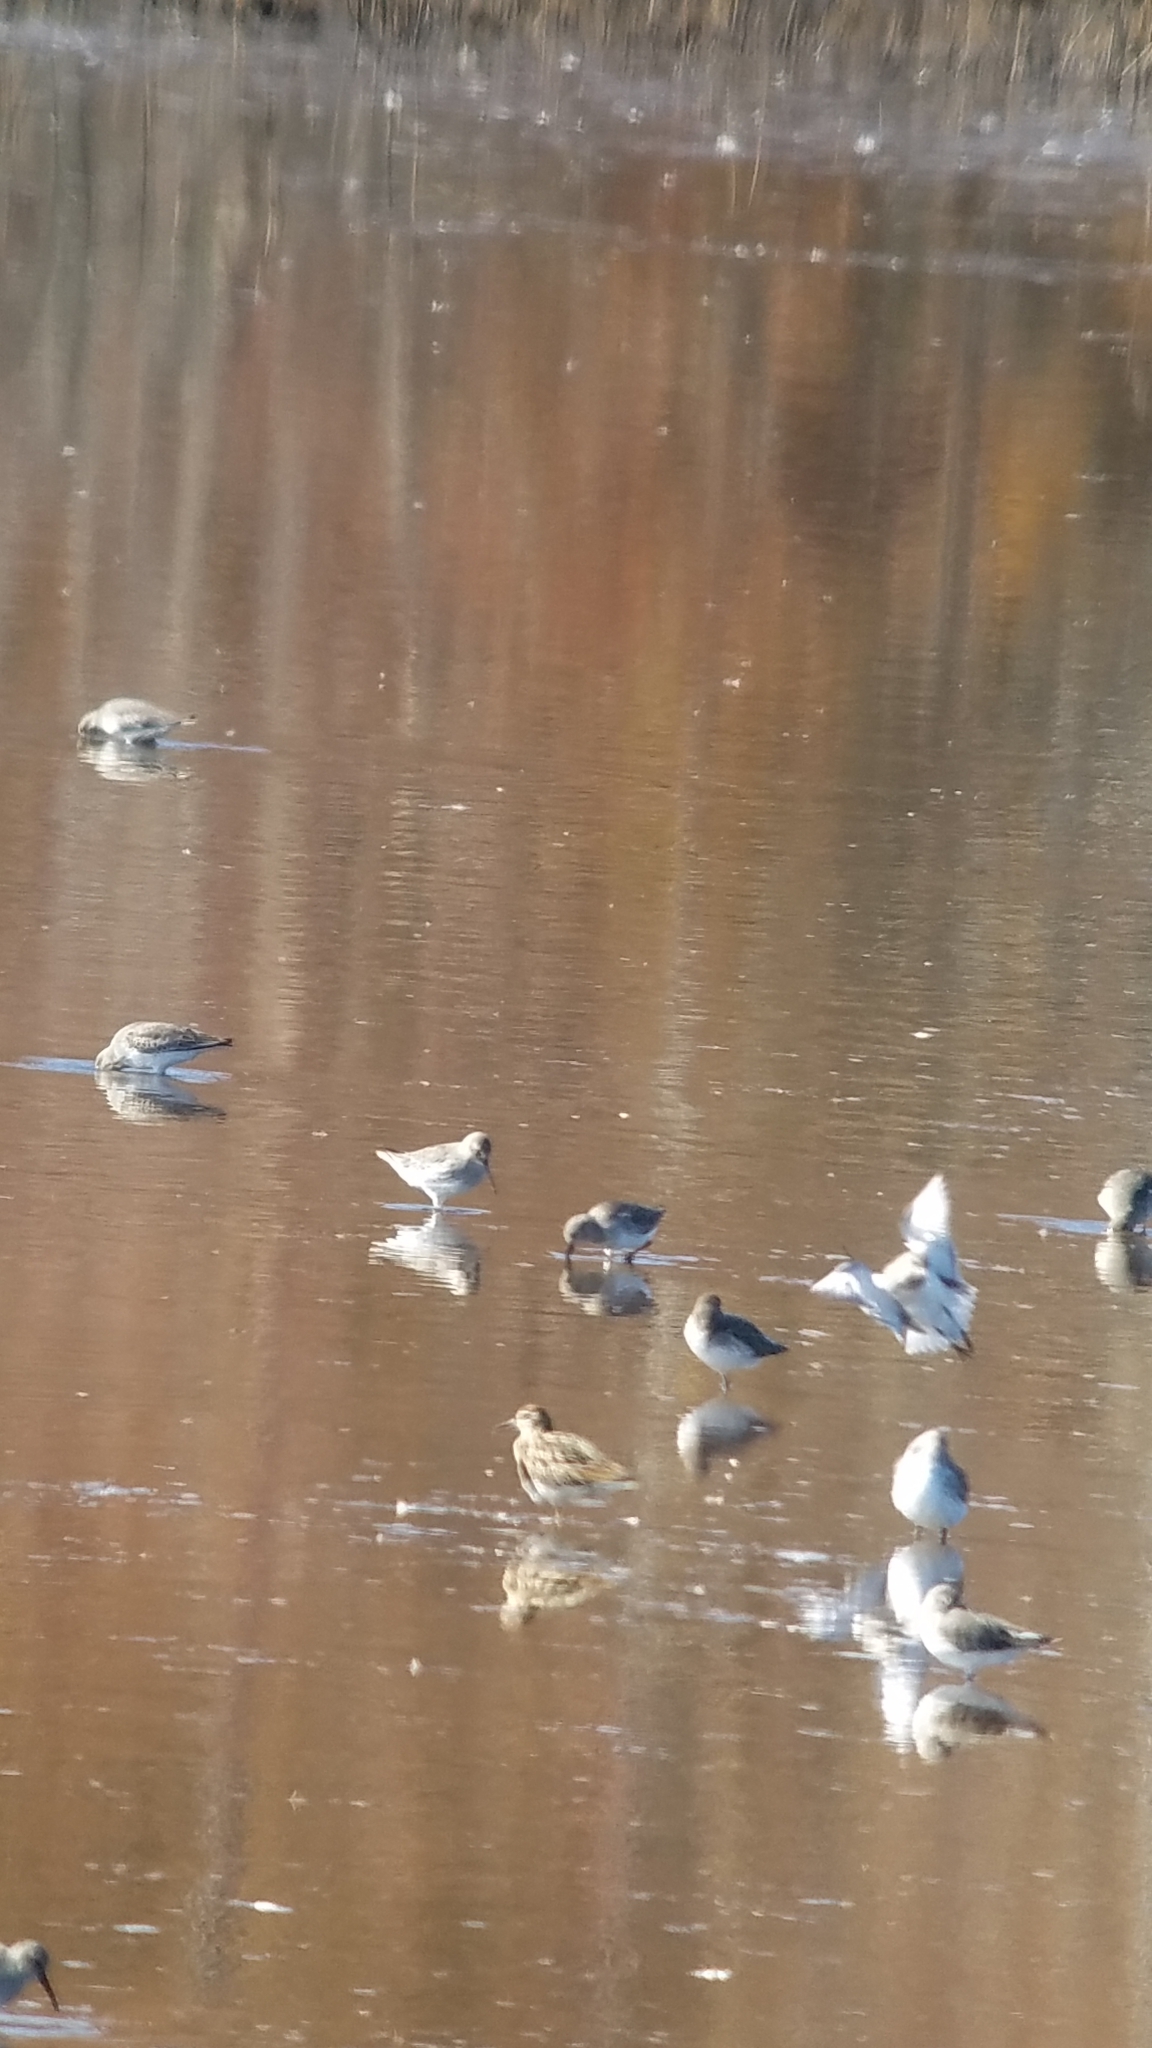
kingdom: Animalia
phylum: Chordata
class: Aves
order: Charadriiformes
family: Scolopacidae
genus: Calidris
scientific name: Calidris acuminata
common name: Sharp-tailed sandpiper
